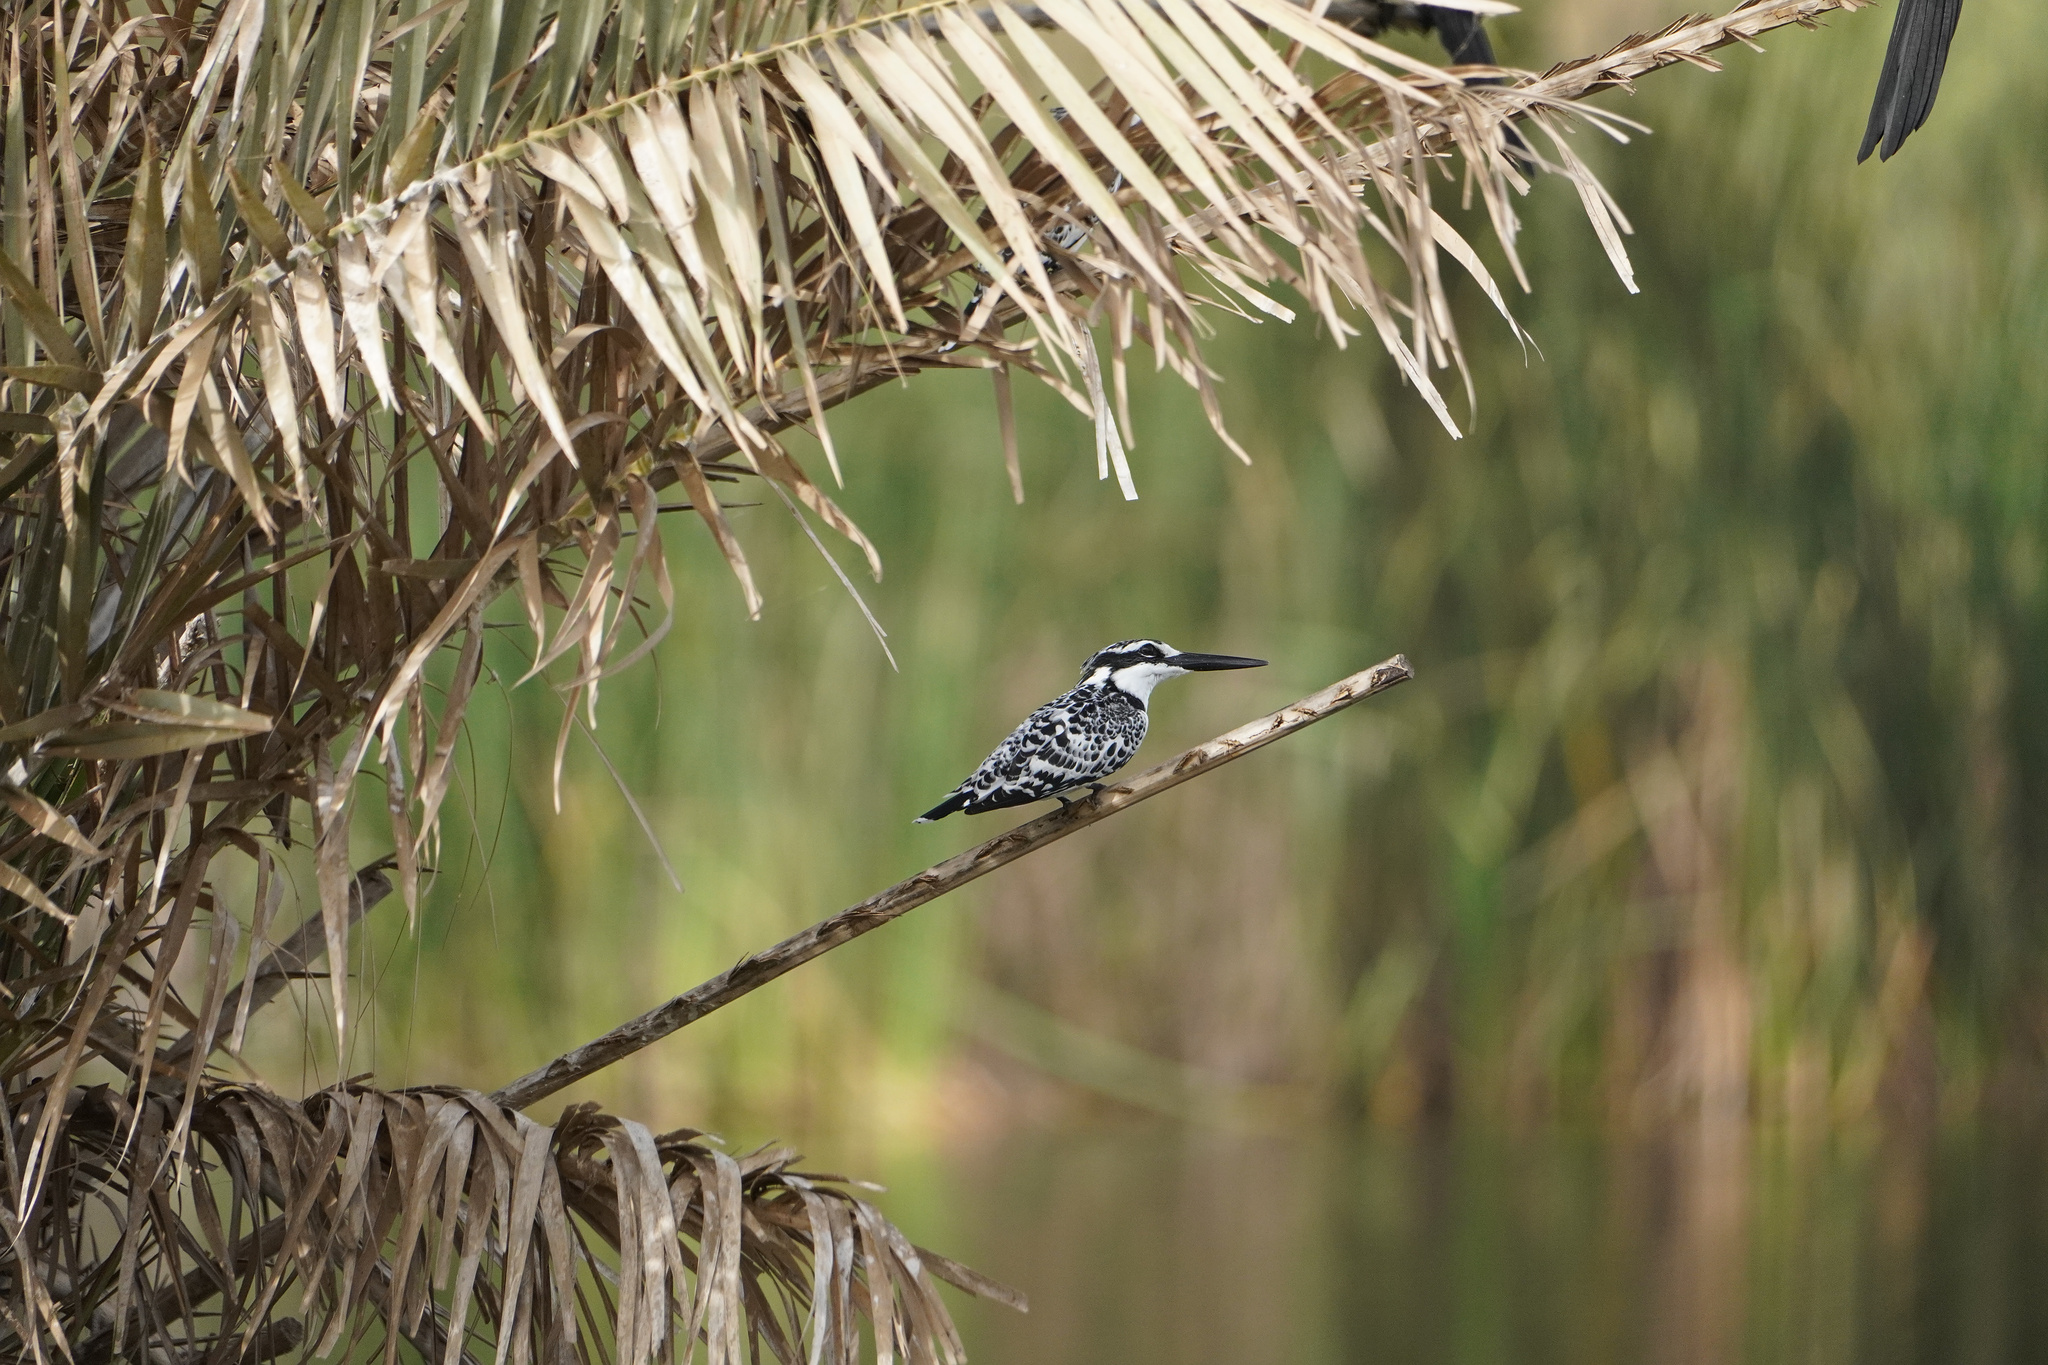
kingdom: Animalia
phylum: Chordata
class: Aves
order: Coraciiformes
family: Alcedinidae
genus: Ceryle
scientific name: Ceryle rudis
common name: Pied kingfisher
